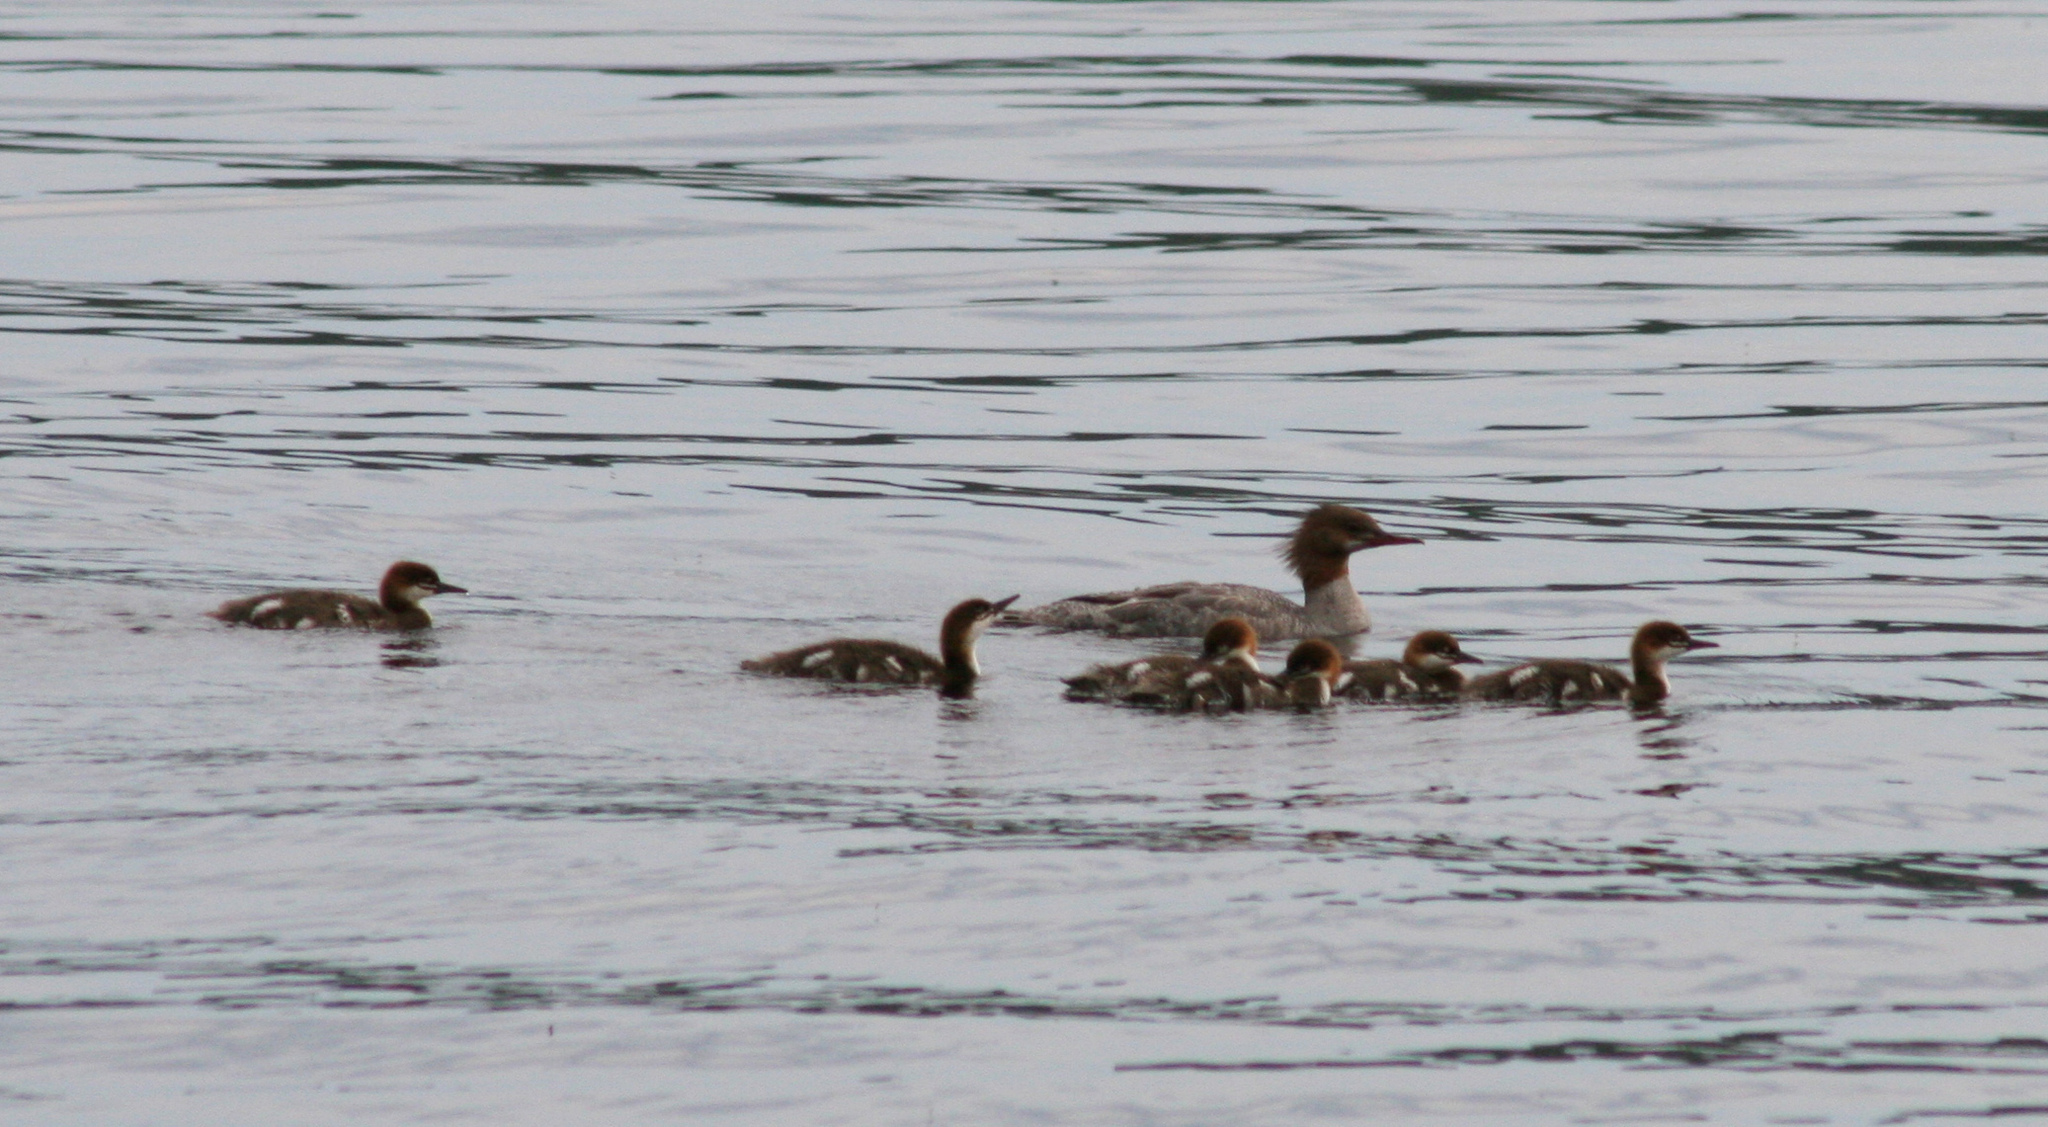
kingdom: Animalia
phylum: Chordata
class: Aves
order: Anseriformes
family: Anatidae
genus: Mergus
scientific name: Mergus merganser
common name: Common merganser
